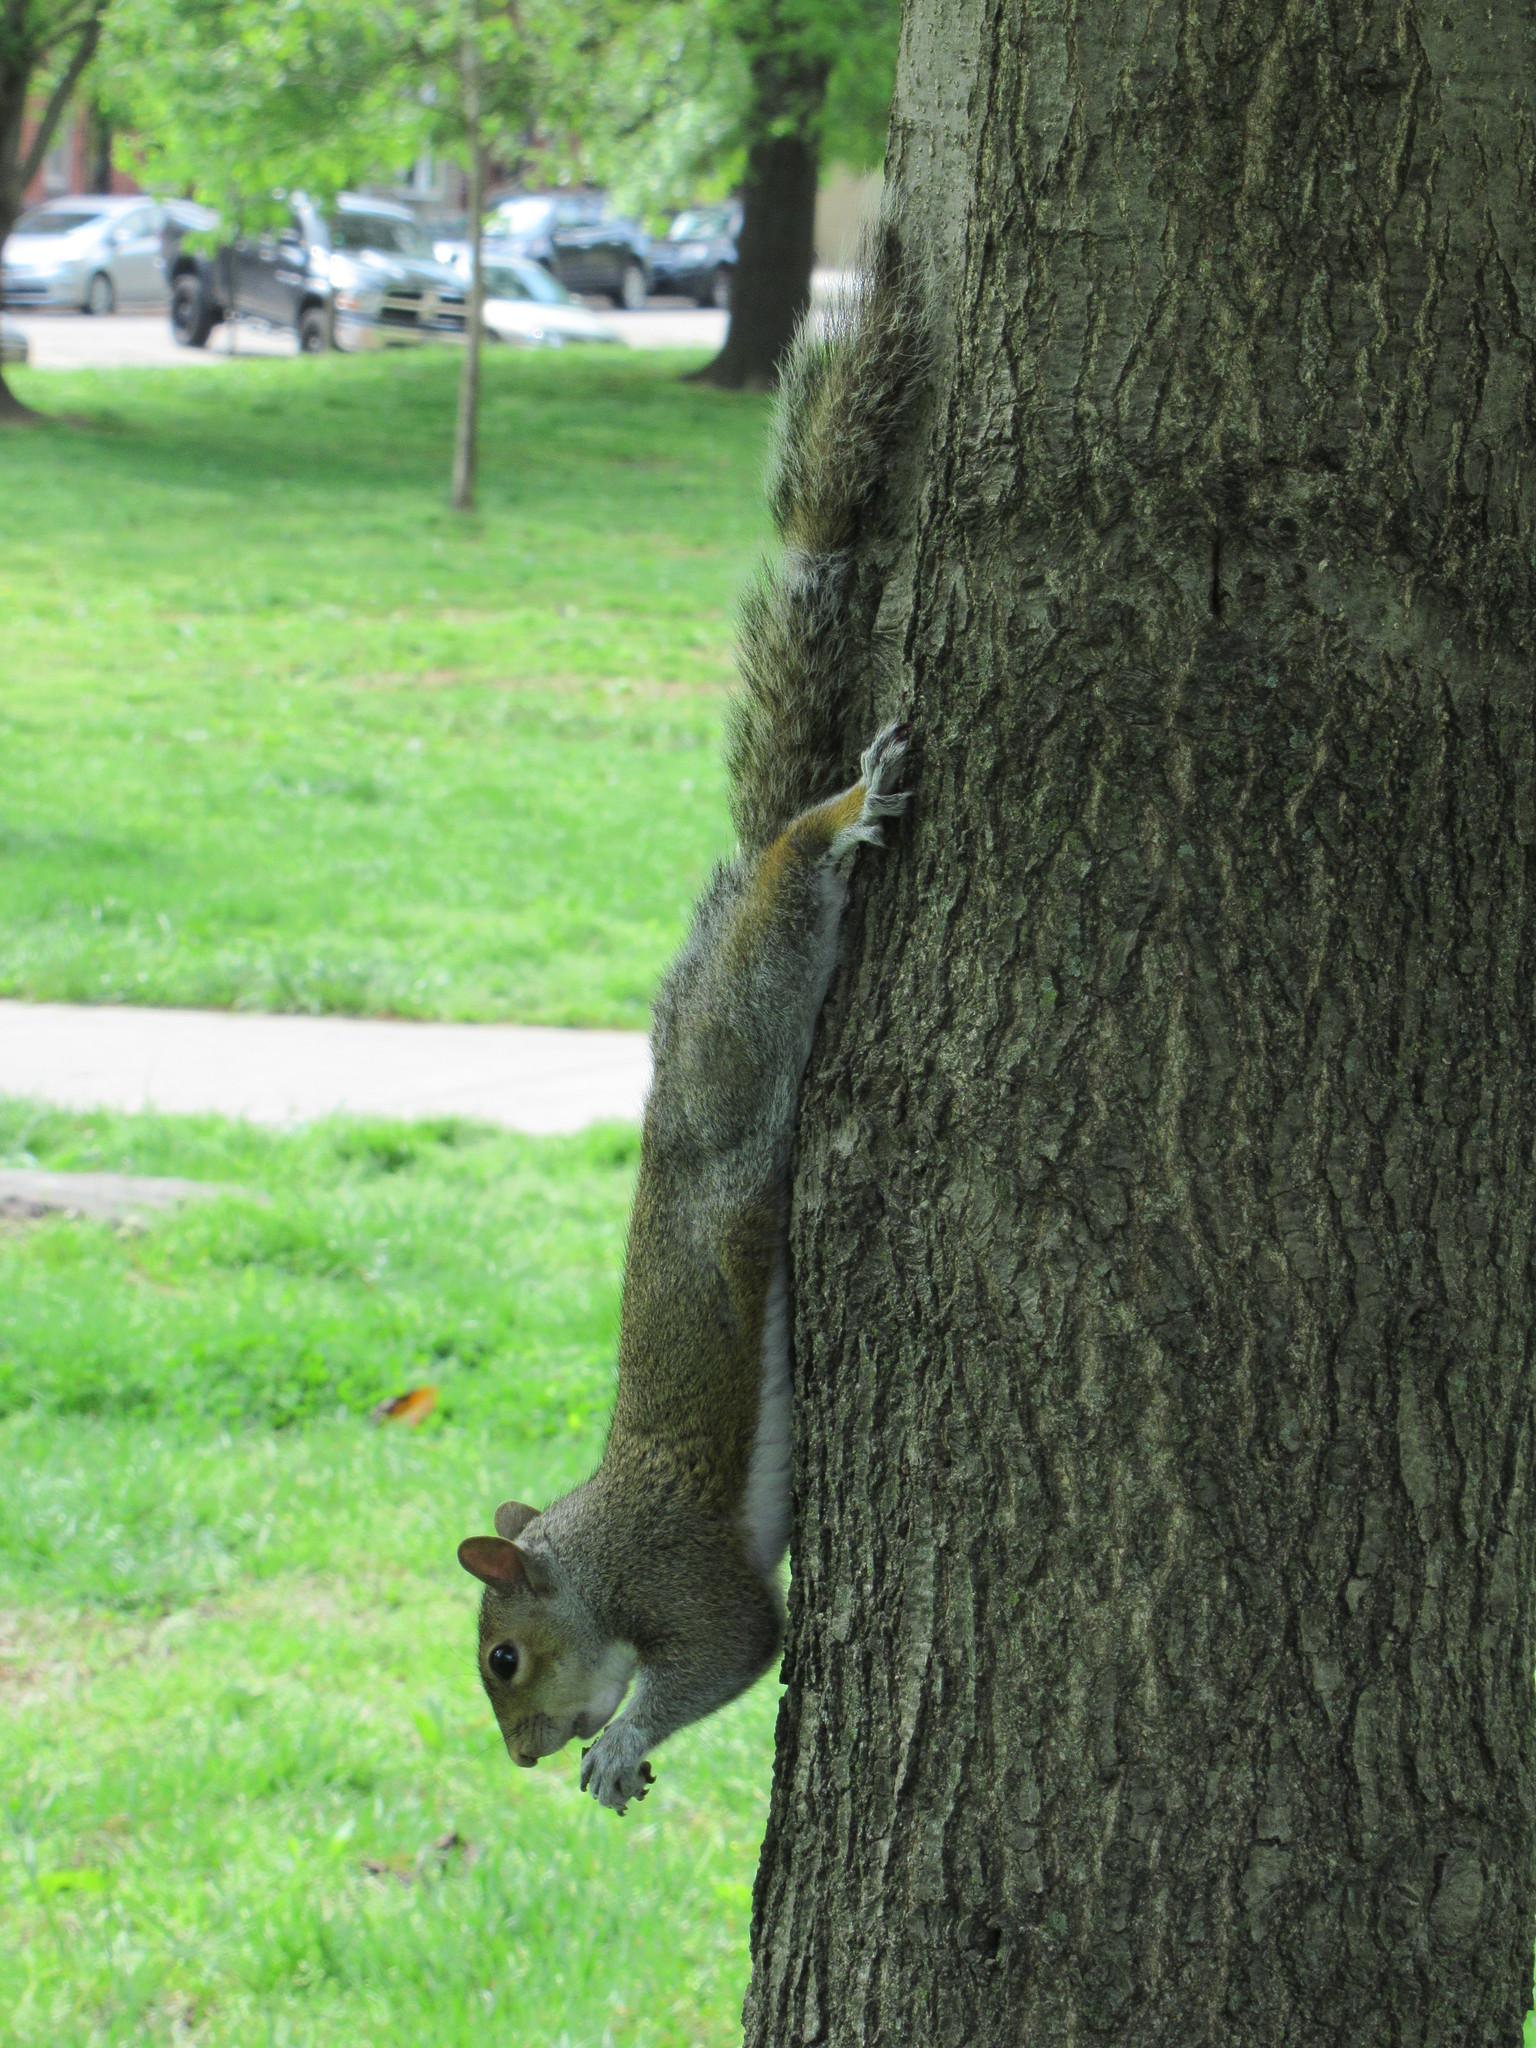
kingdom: Animalia
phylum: Chordata
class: Mammalia
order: Rodentia
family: Sciuridae
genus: Sciurus
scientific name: Sciurus carolinensis
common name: Eastern gray squirrel
